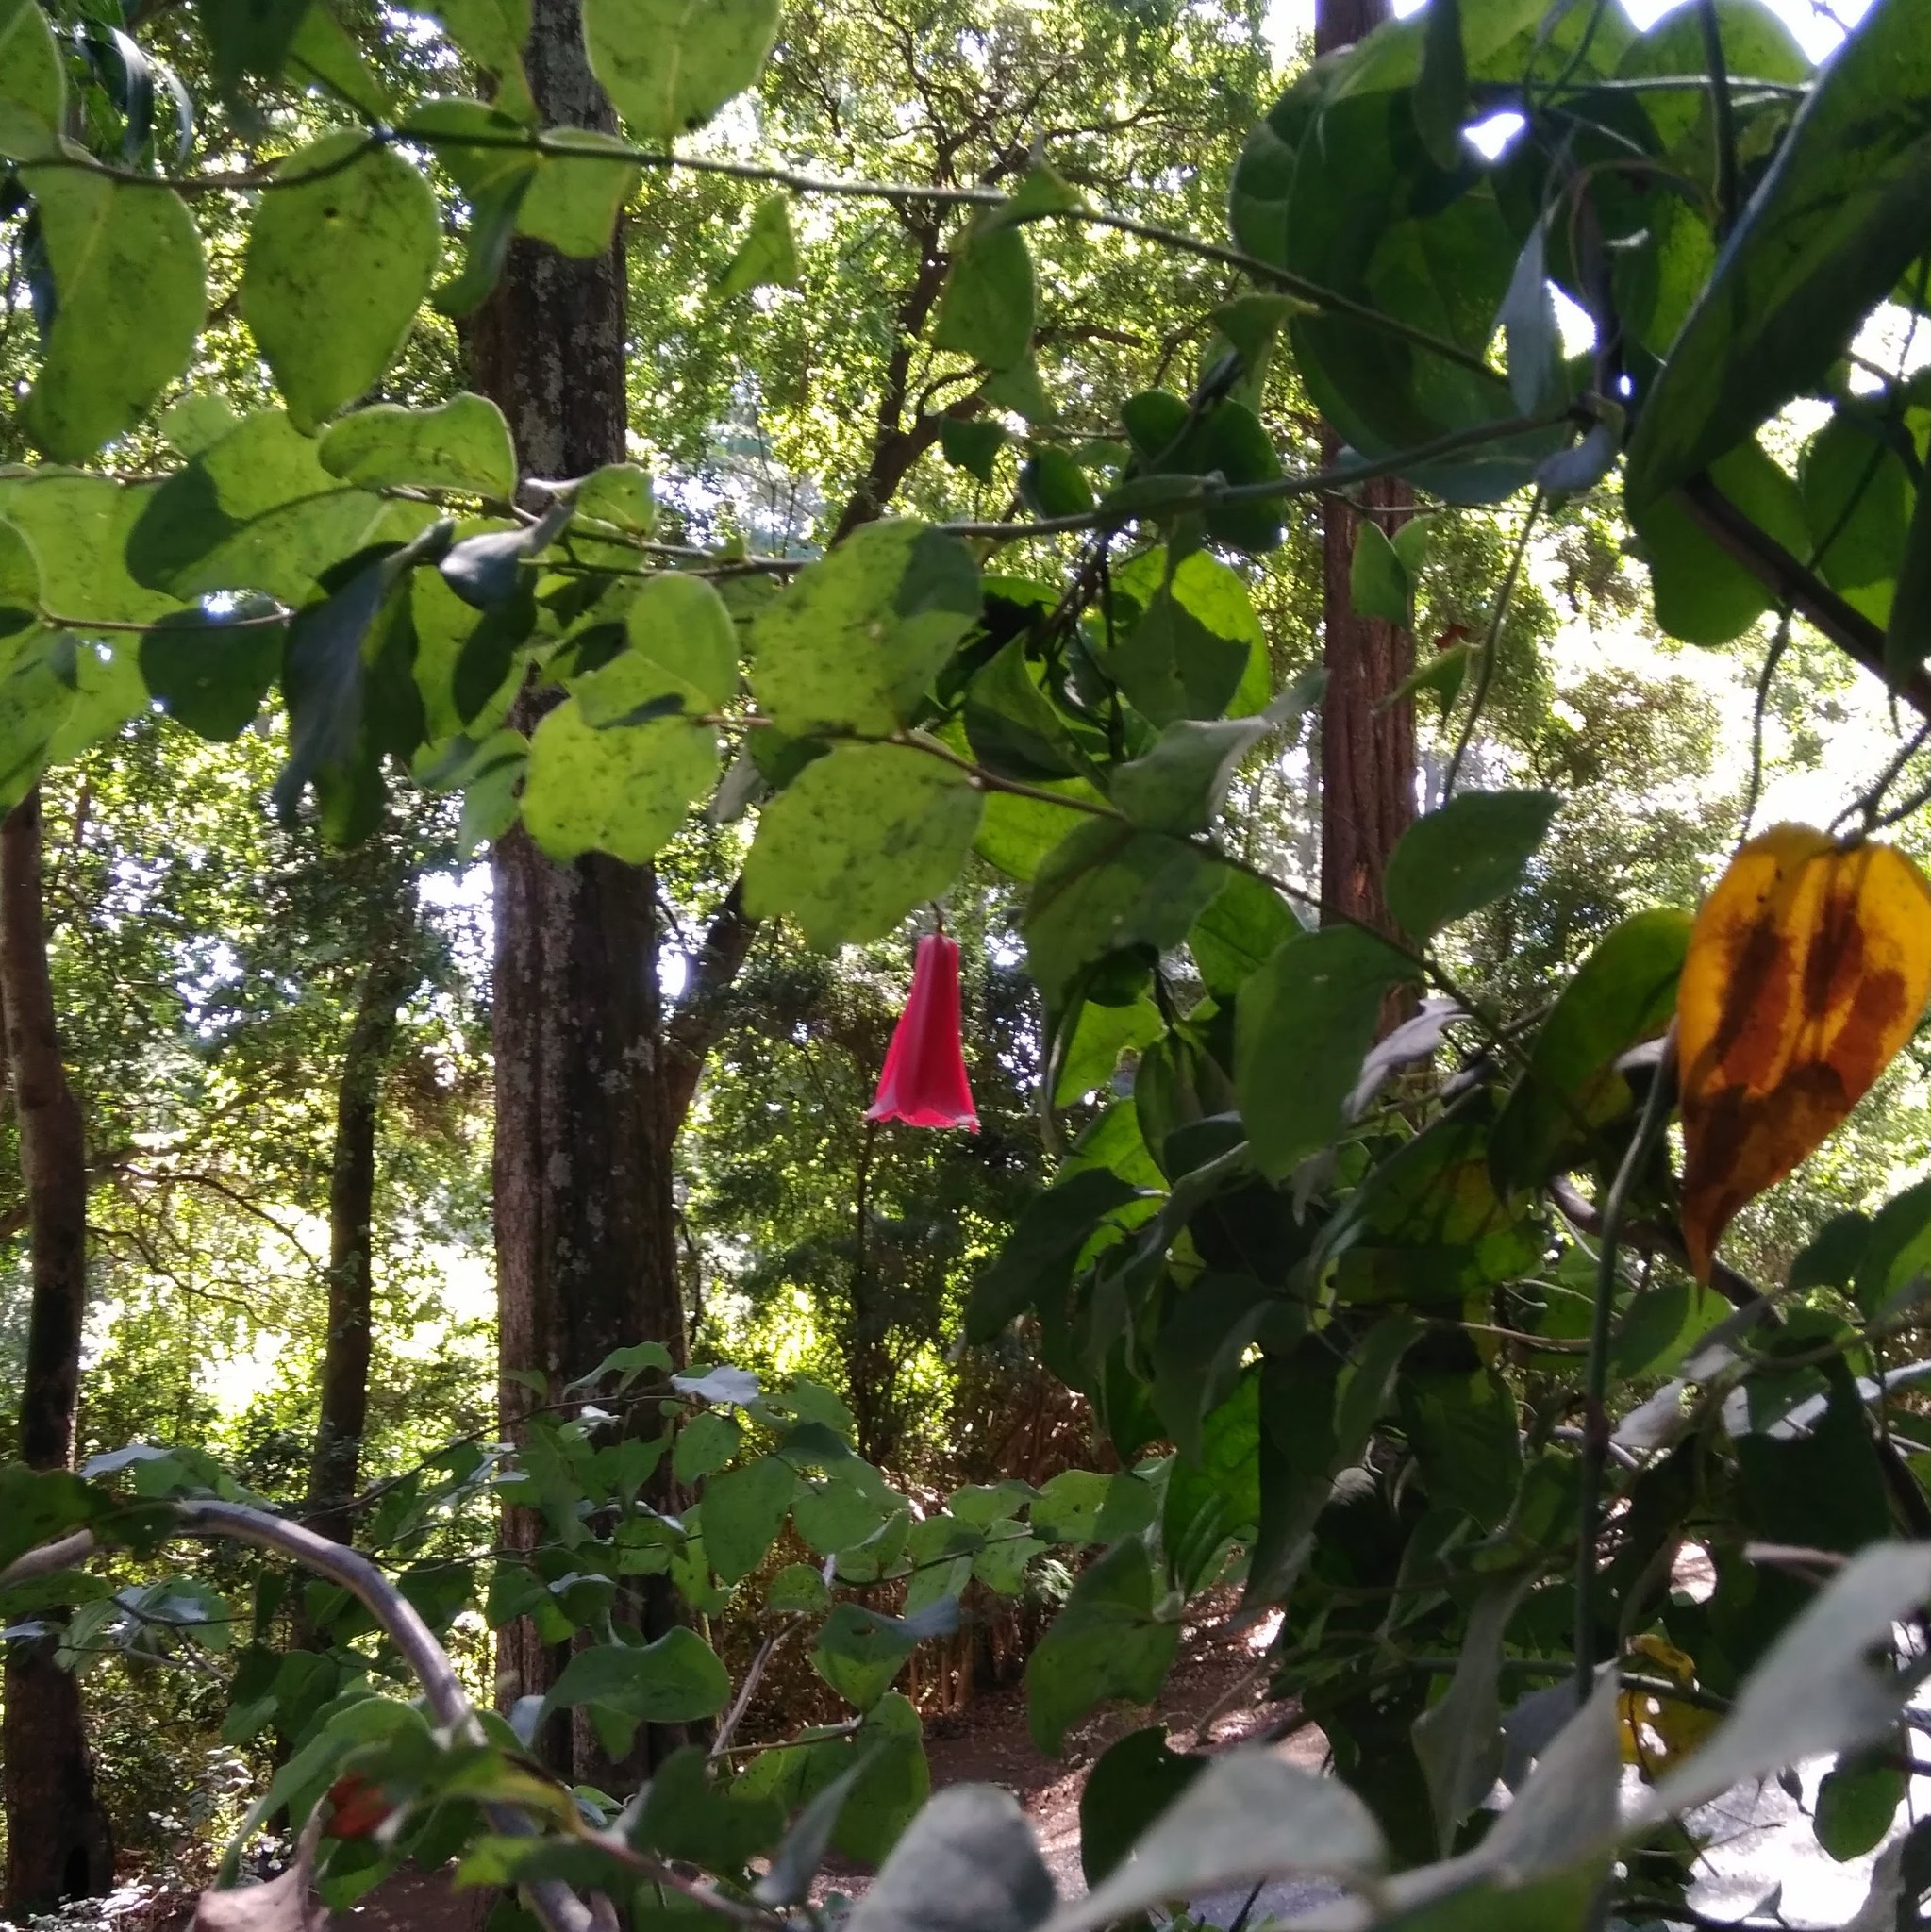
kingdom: Plantae
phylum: Tracheophyta
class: Liliopsida
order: Liliales
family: Philesiaceae
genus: Lapageria
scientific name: Lapageria rosea
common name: Chilean-bellflower
